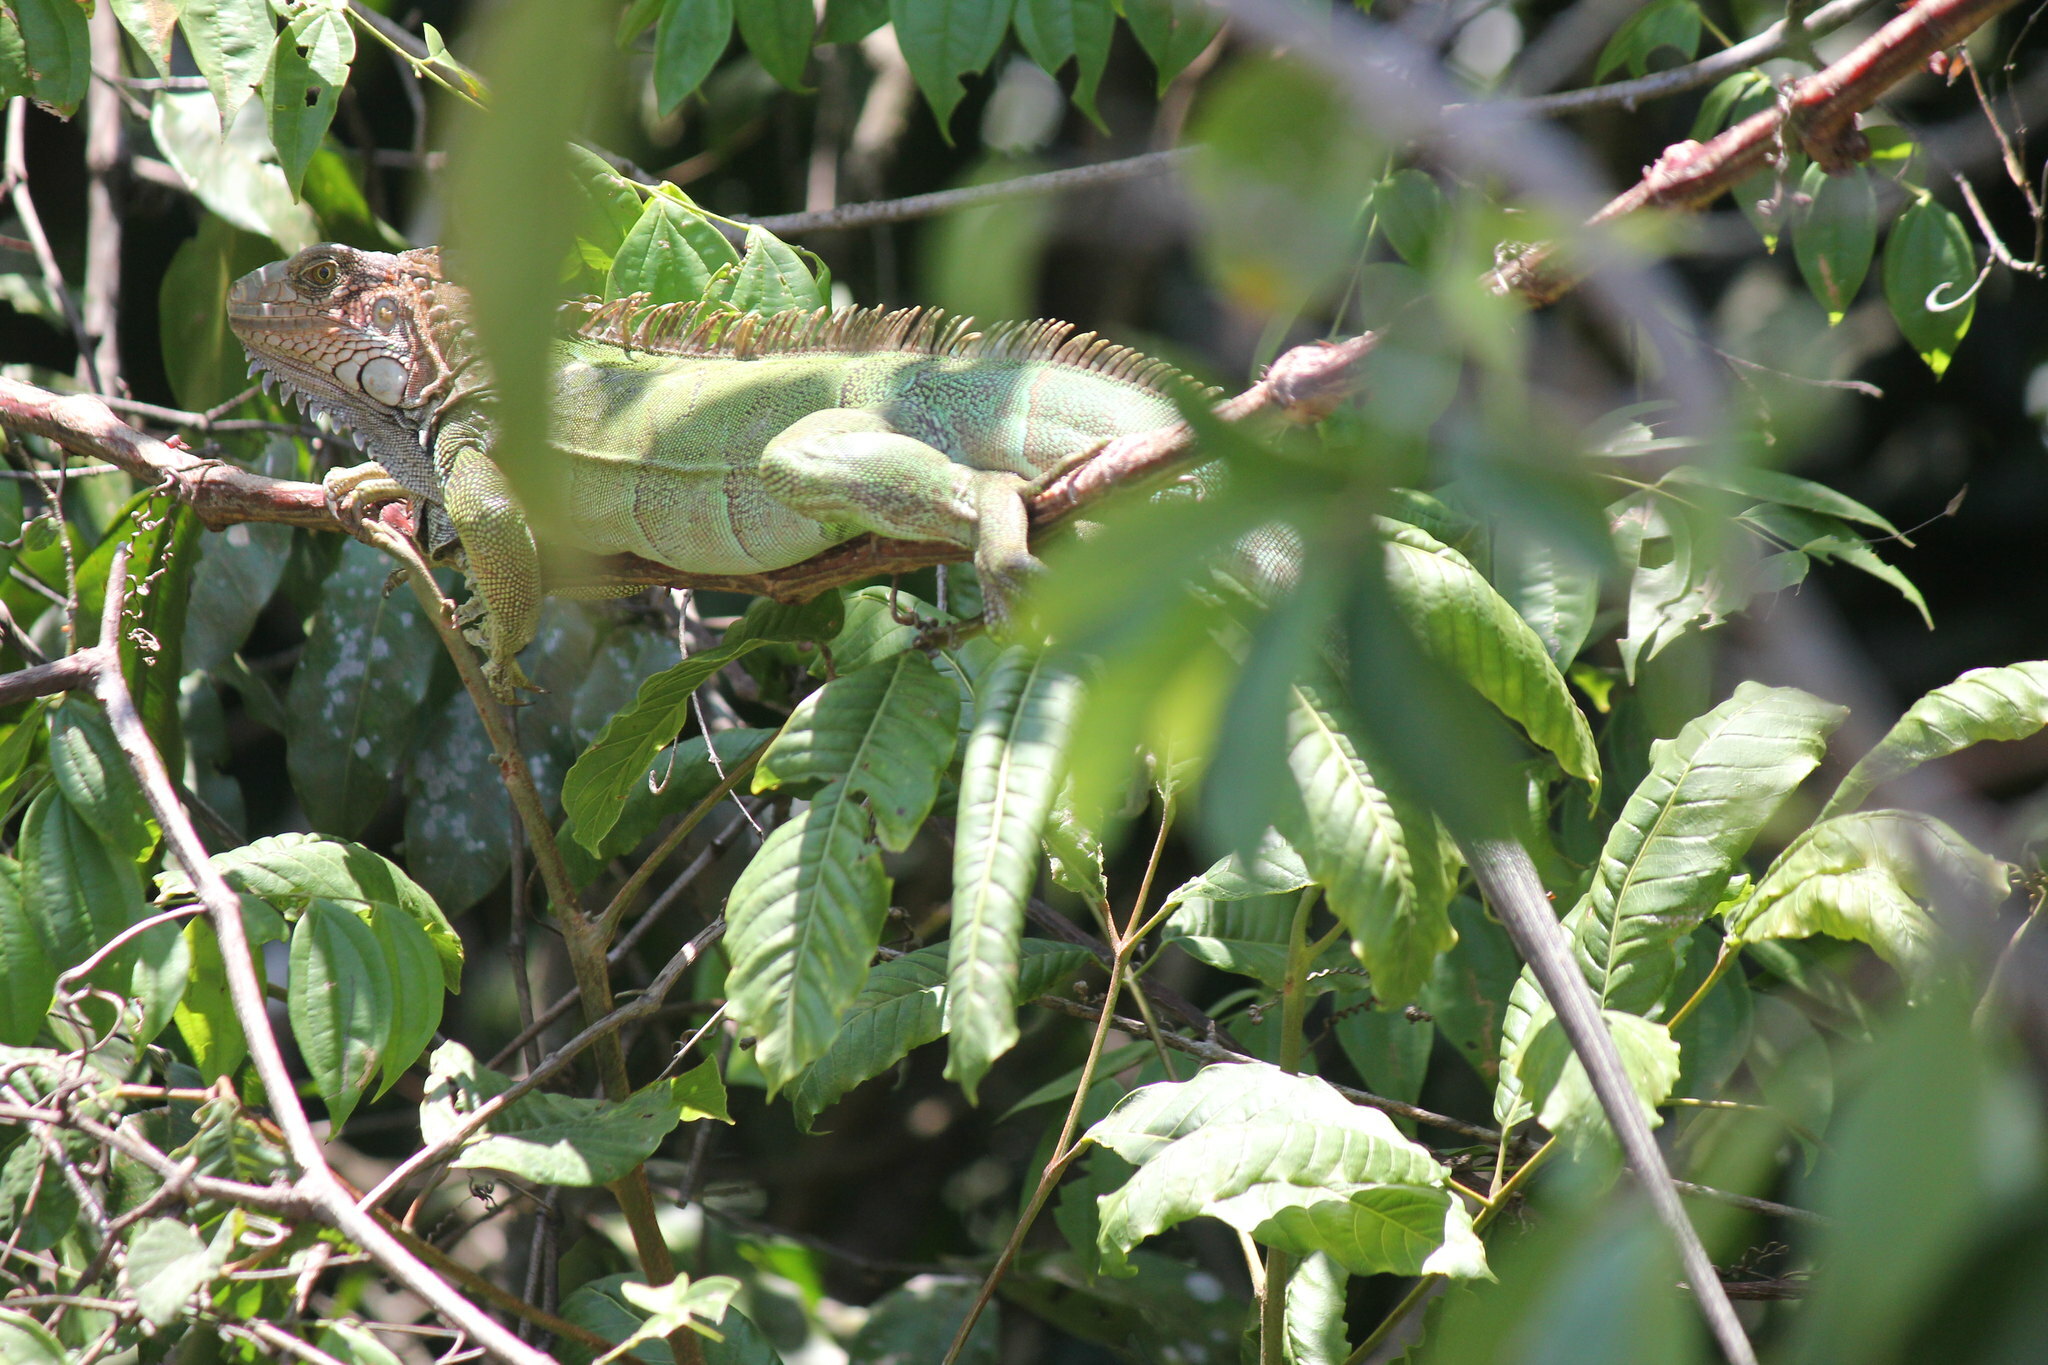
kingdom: Animalia
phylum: Chordata
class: Squamata
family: Iguanidae
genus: Iguana
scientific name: Iguana iguana
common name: Green iguana
